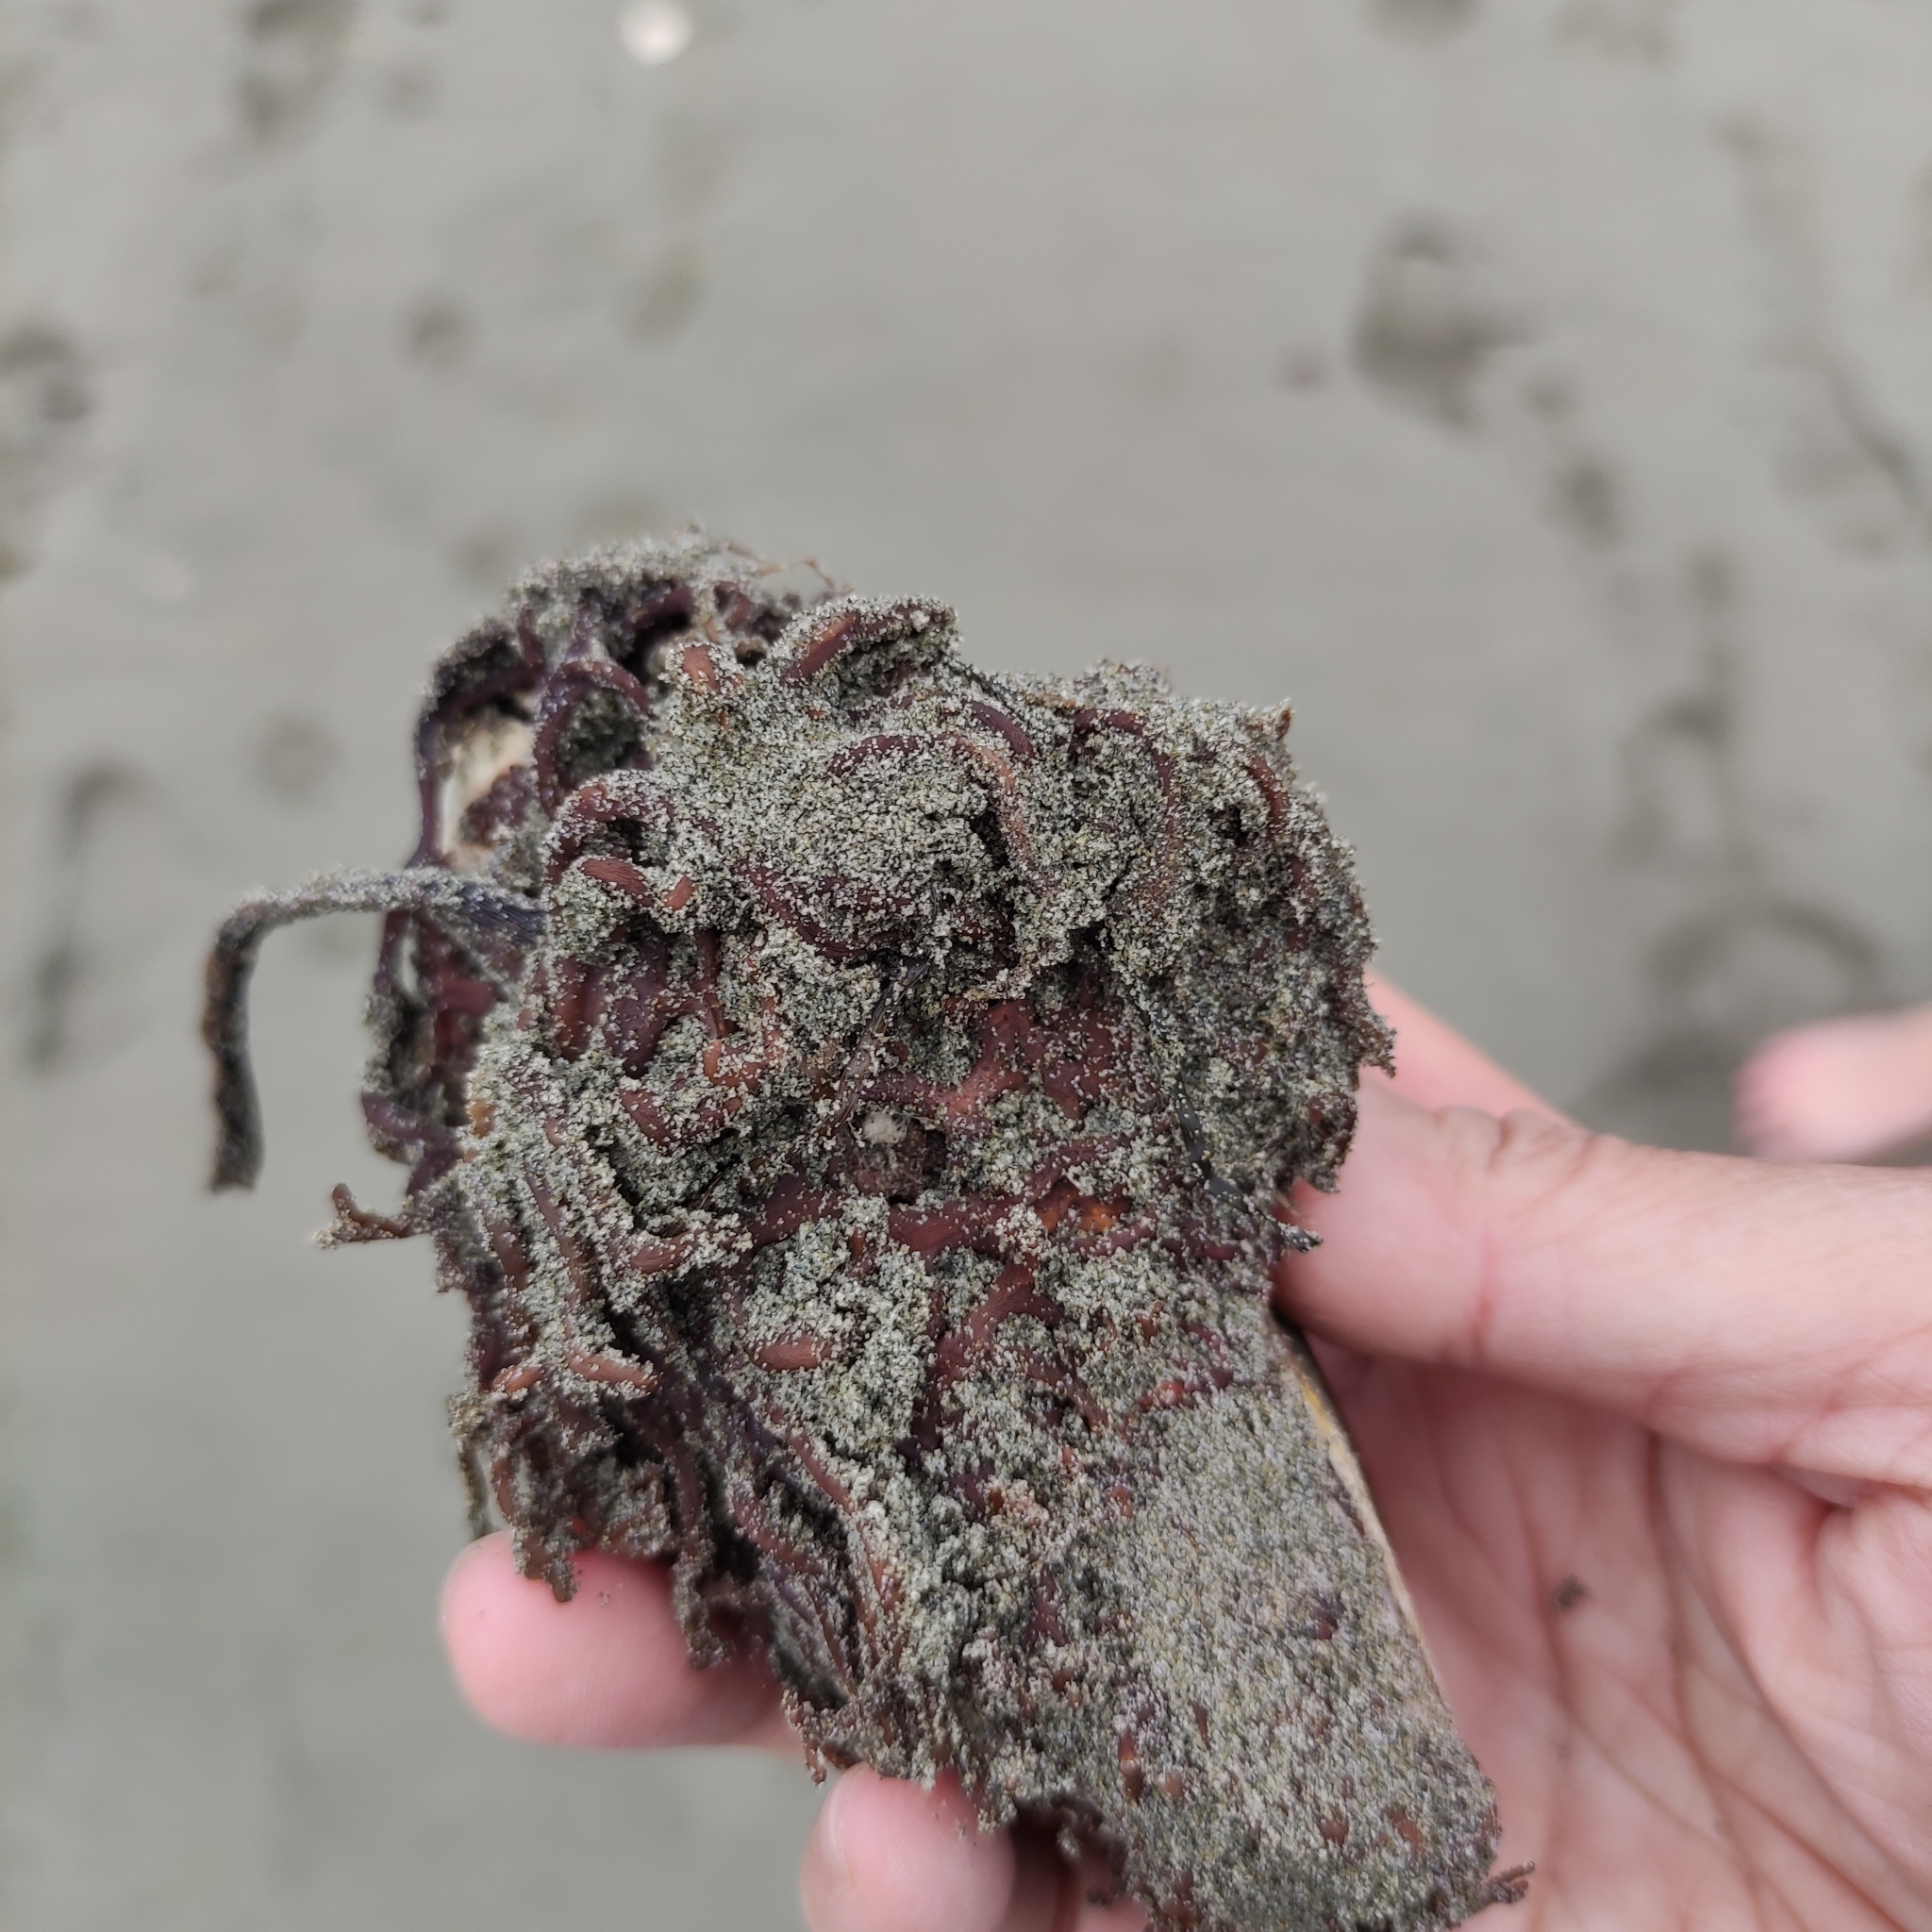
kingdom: Animalia
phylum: Mollusca
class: Bivalvia
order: Mytilida
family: Mytilidae
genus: Perna
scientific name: Perna canaliculus
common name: New zealand greenshelltm
